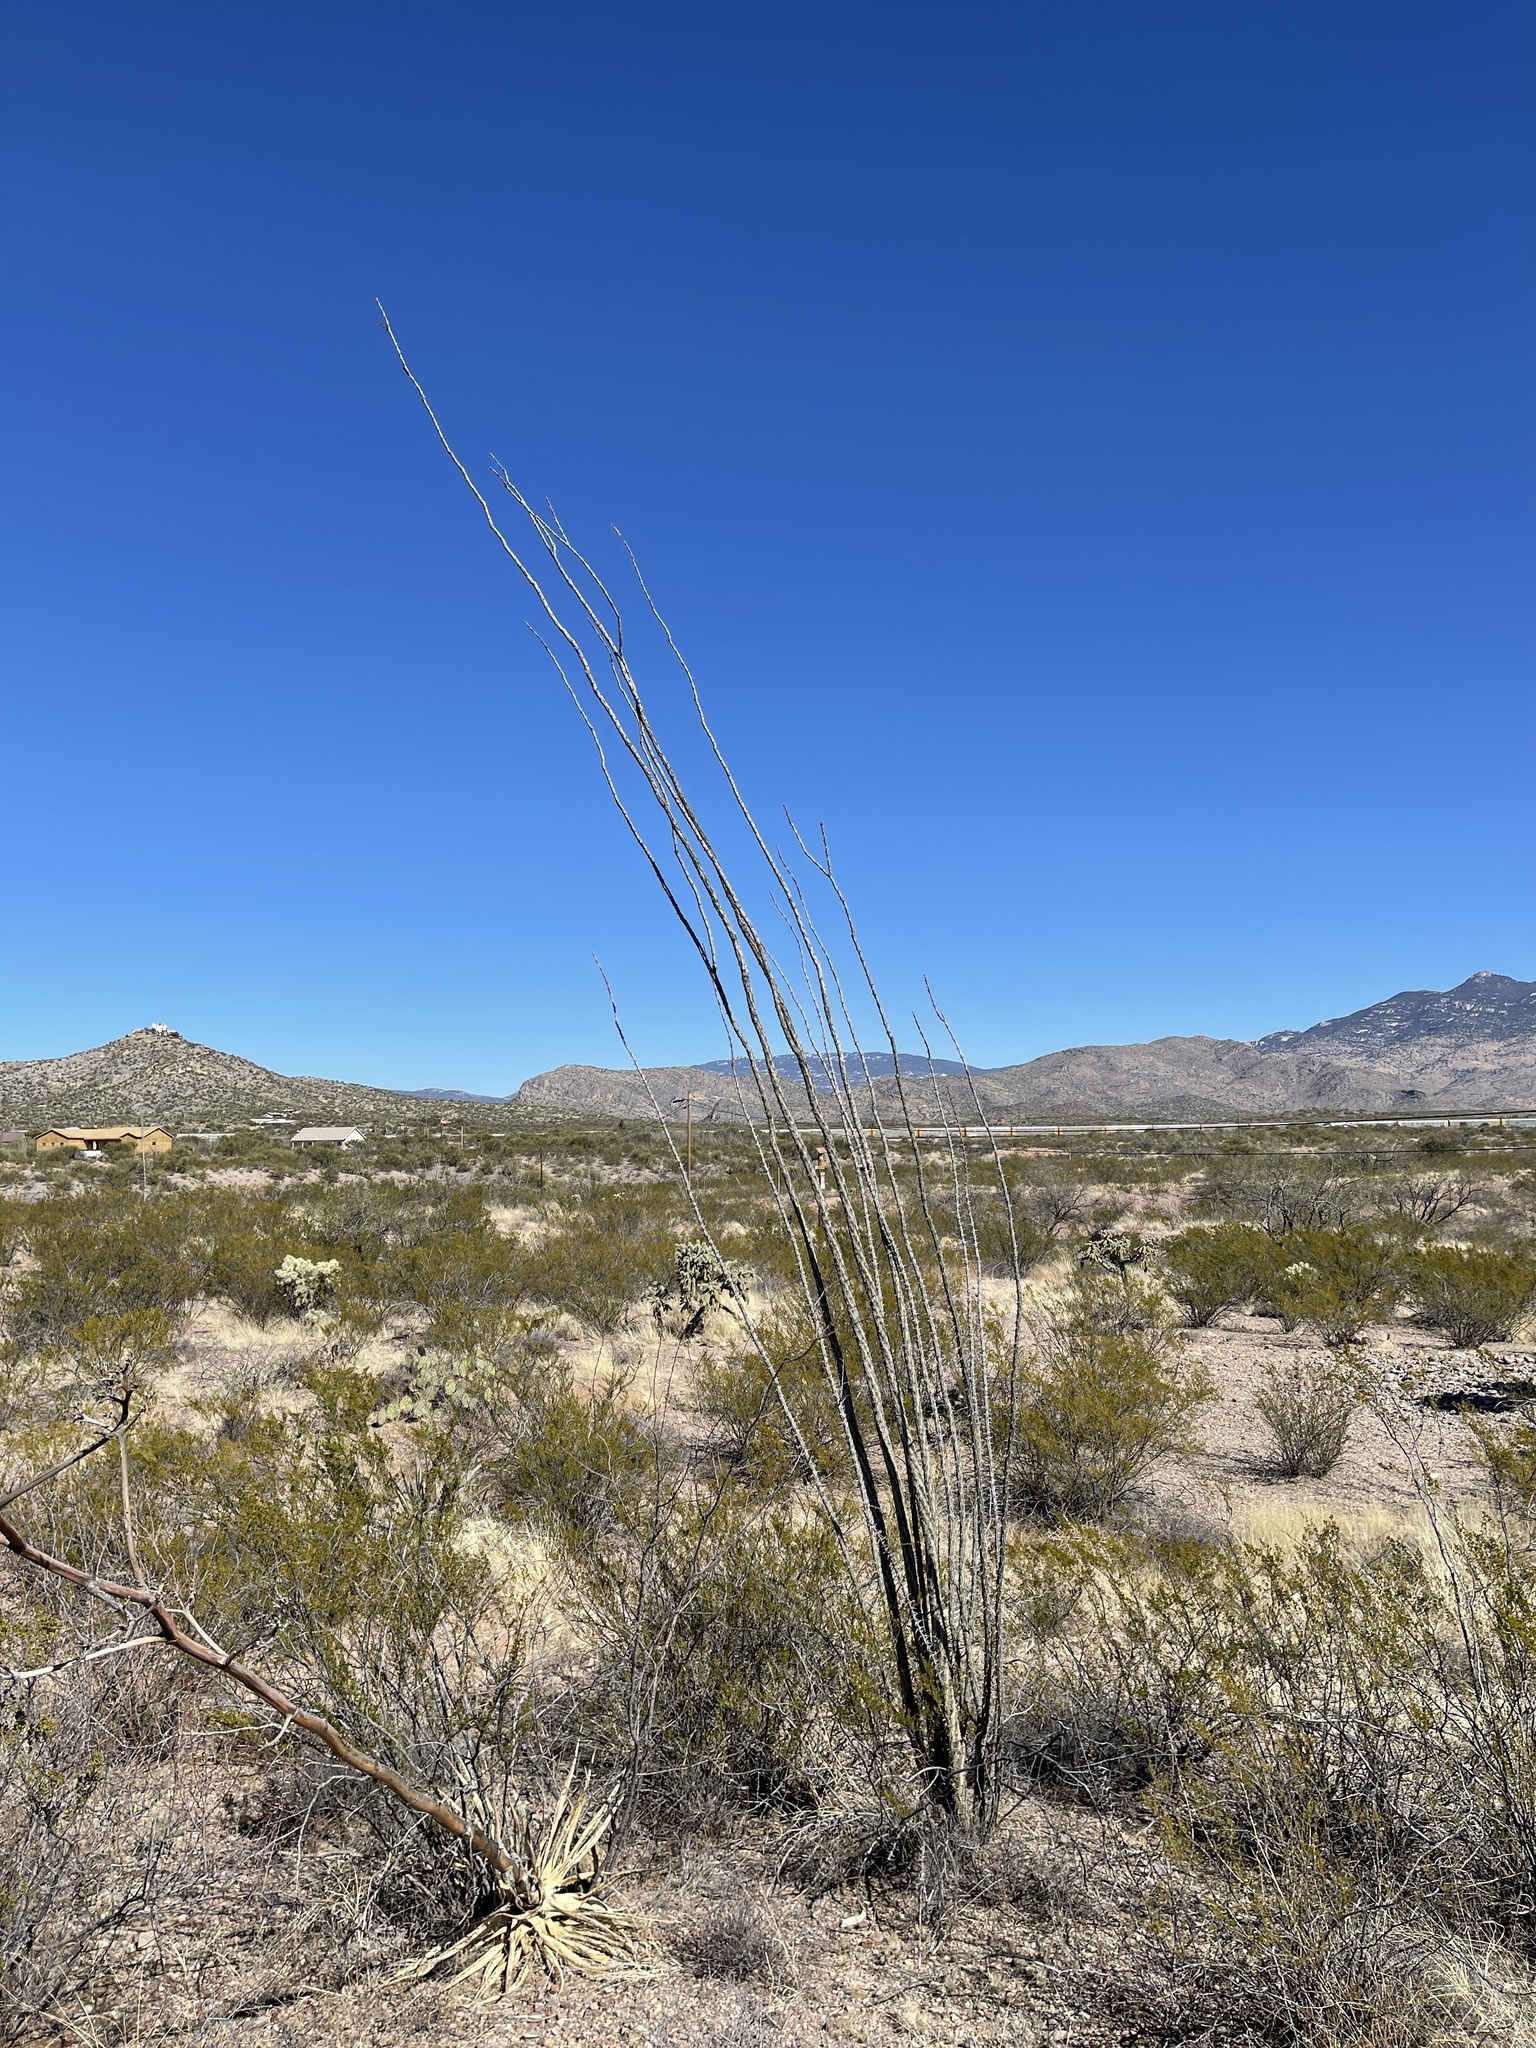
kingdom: Plantae
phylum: Tracheophyta
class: Magnoliopsida
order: Ericales
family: Fouquieriaceae
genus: Fouquieria
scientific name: Fouquieria splendens
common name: Vine-cactus
